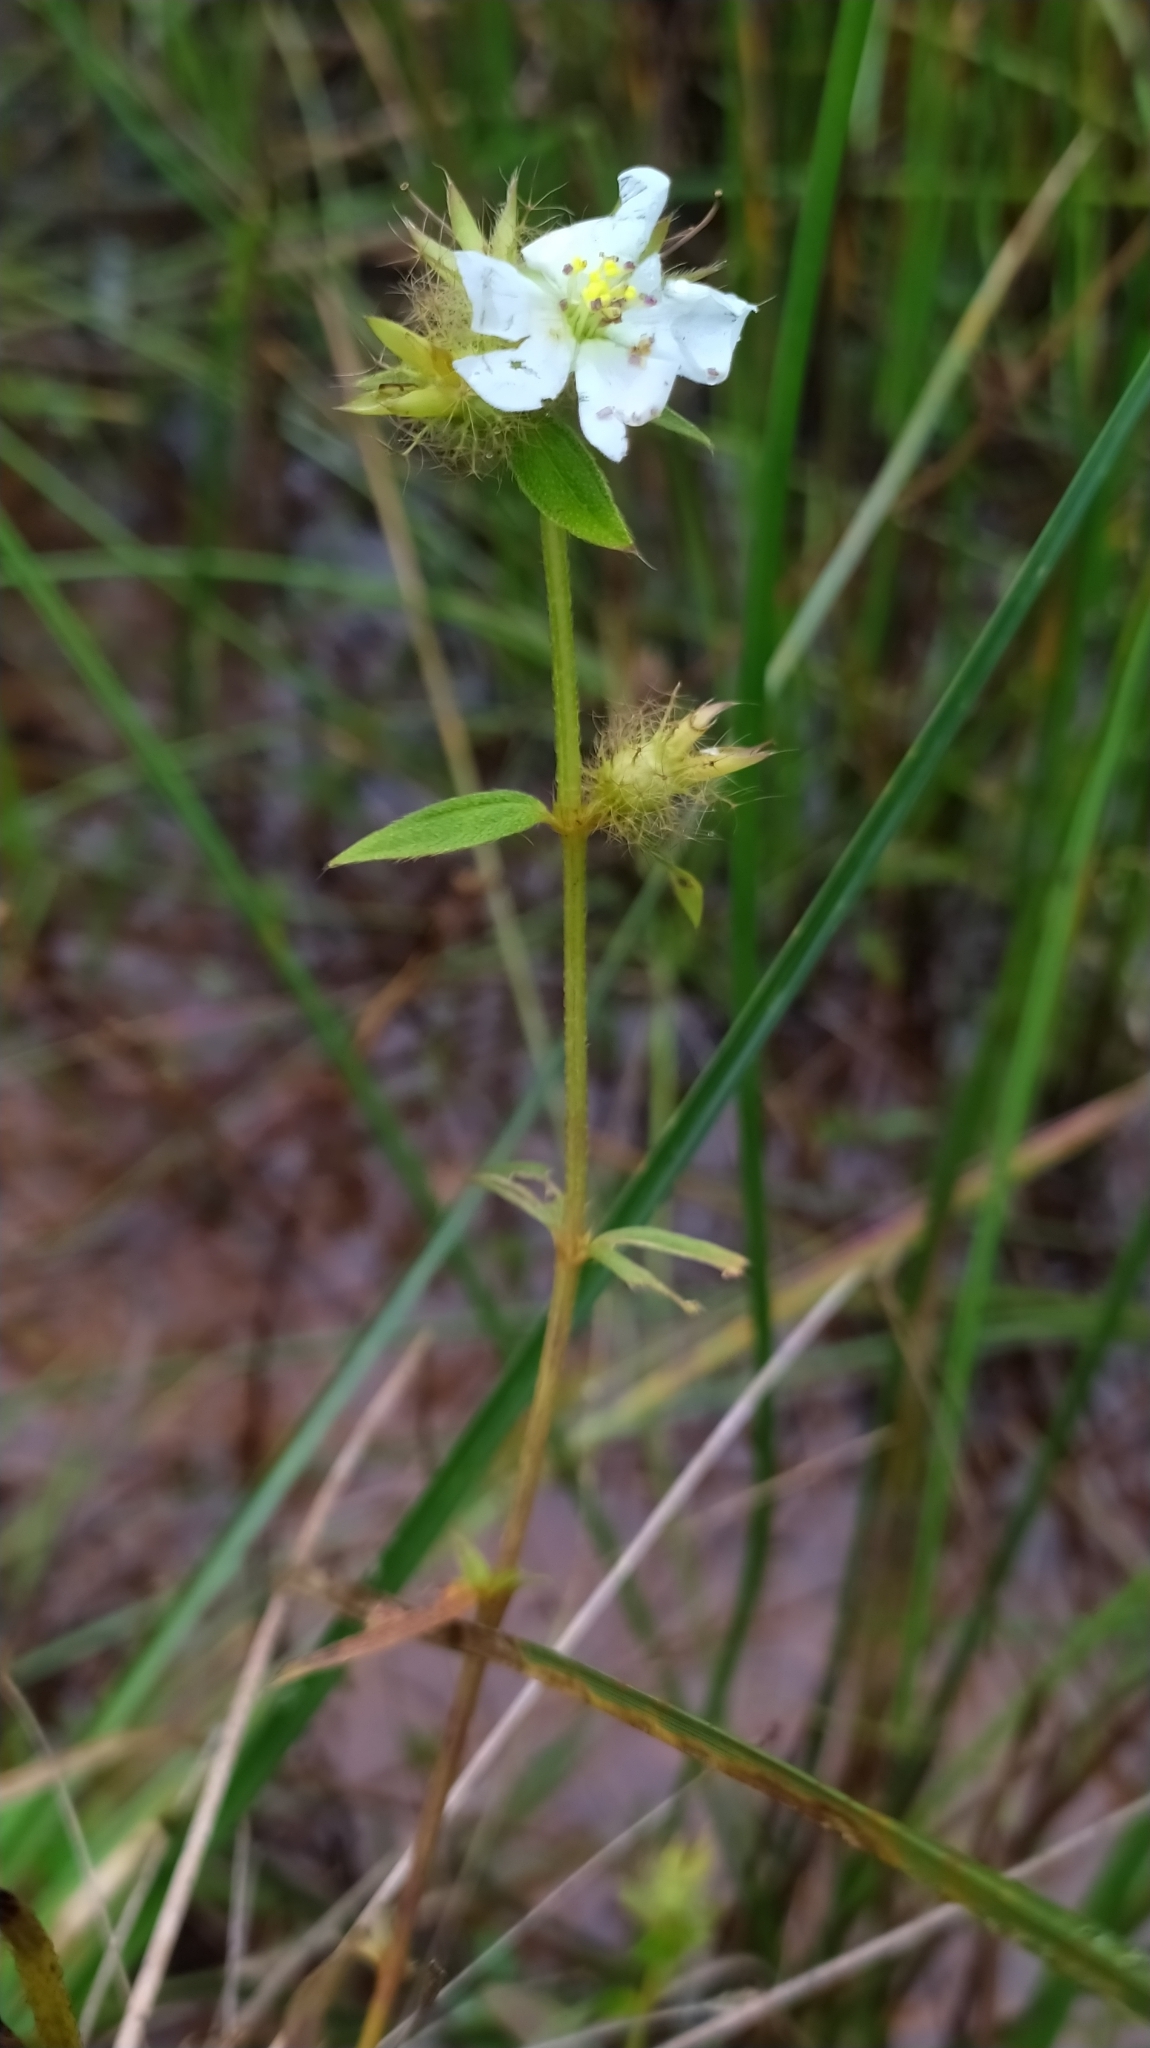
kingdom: Plantae
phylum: Tracheophyta
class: Magnoliopsida
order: Myrtales
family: Melastomataceae
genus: Pterolepis
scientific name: Pterolepis glomerata
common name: False meadowbeauty
